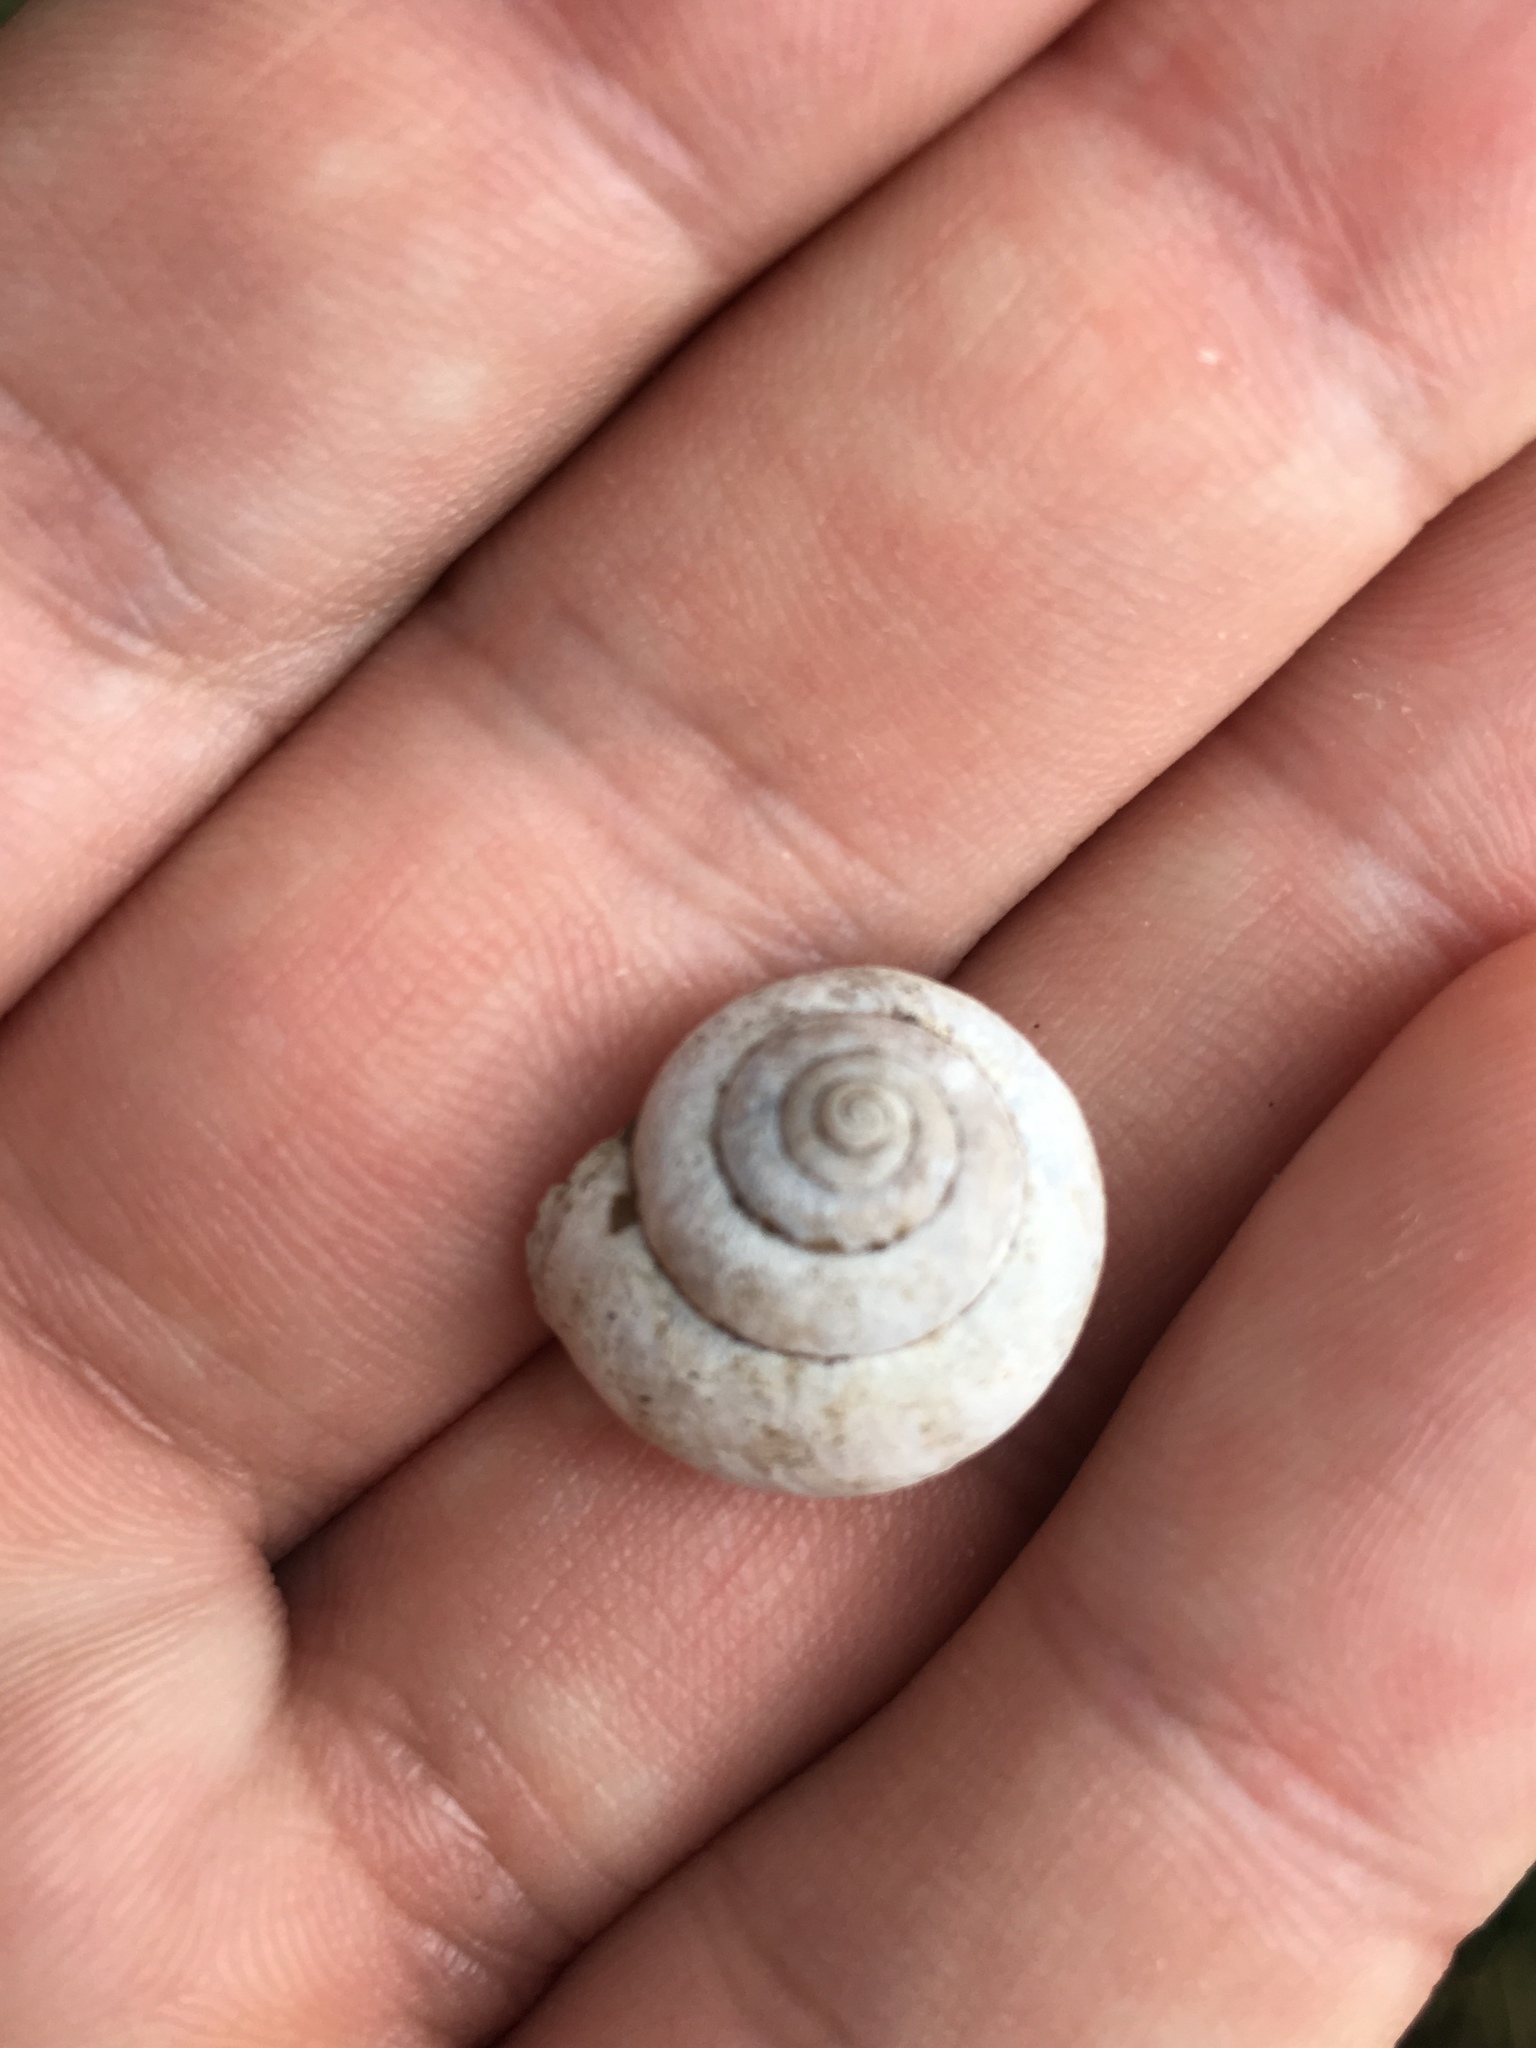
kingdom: Animalia
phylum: Mollusca
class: Gastropoda
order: Stylommatophora
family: Hygromiidae
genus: Euomphalia
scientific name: Euomphalia strigella
